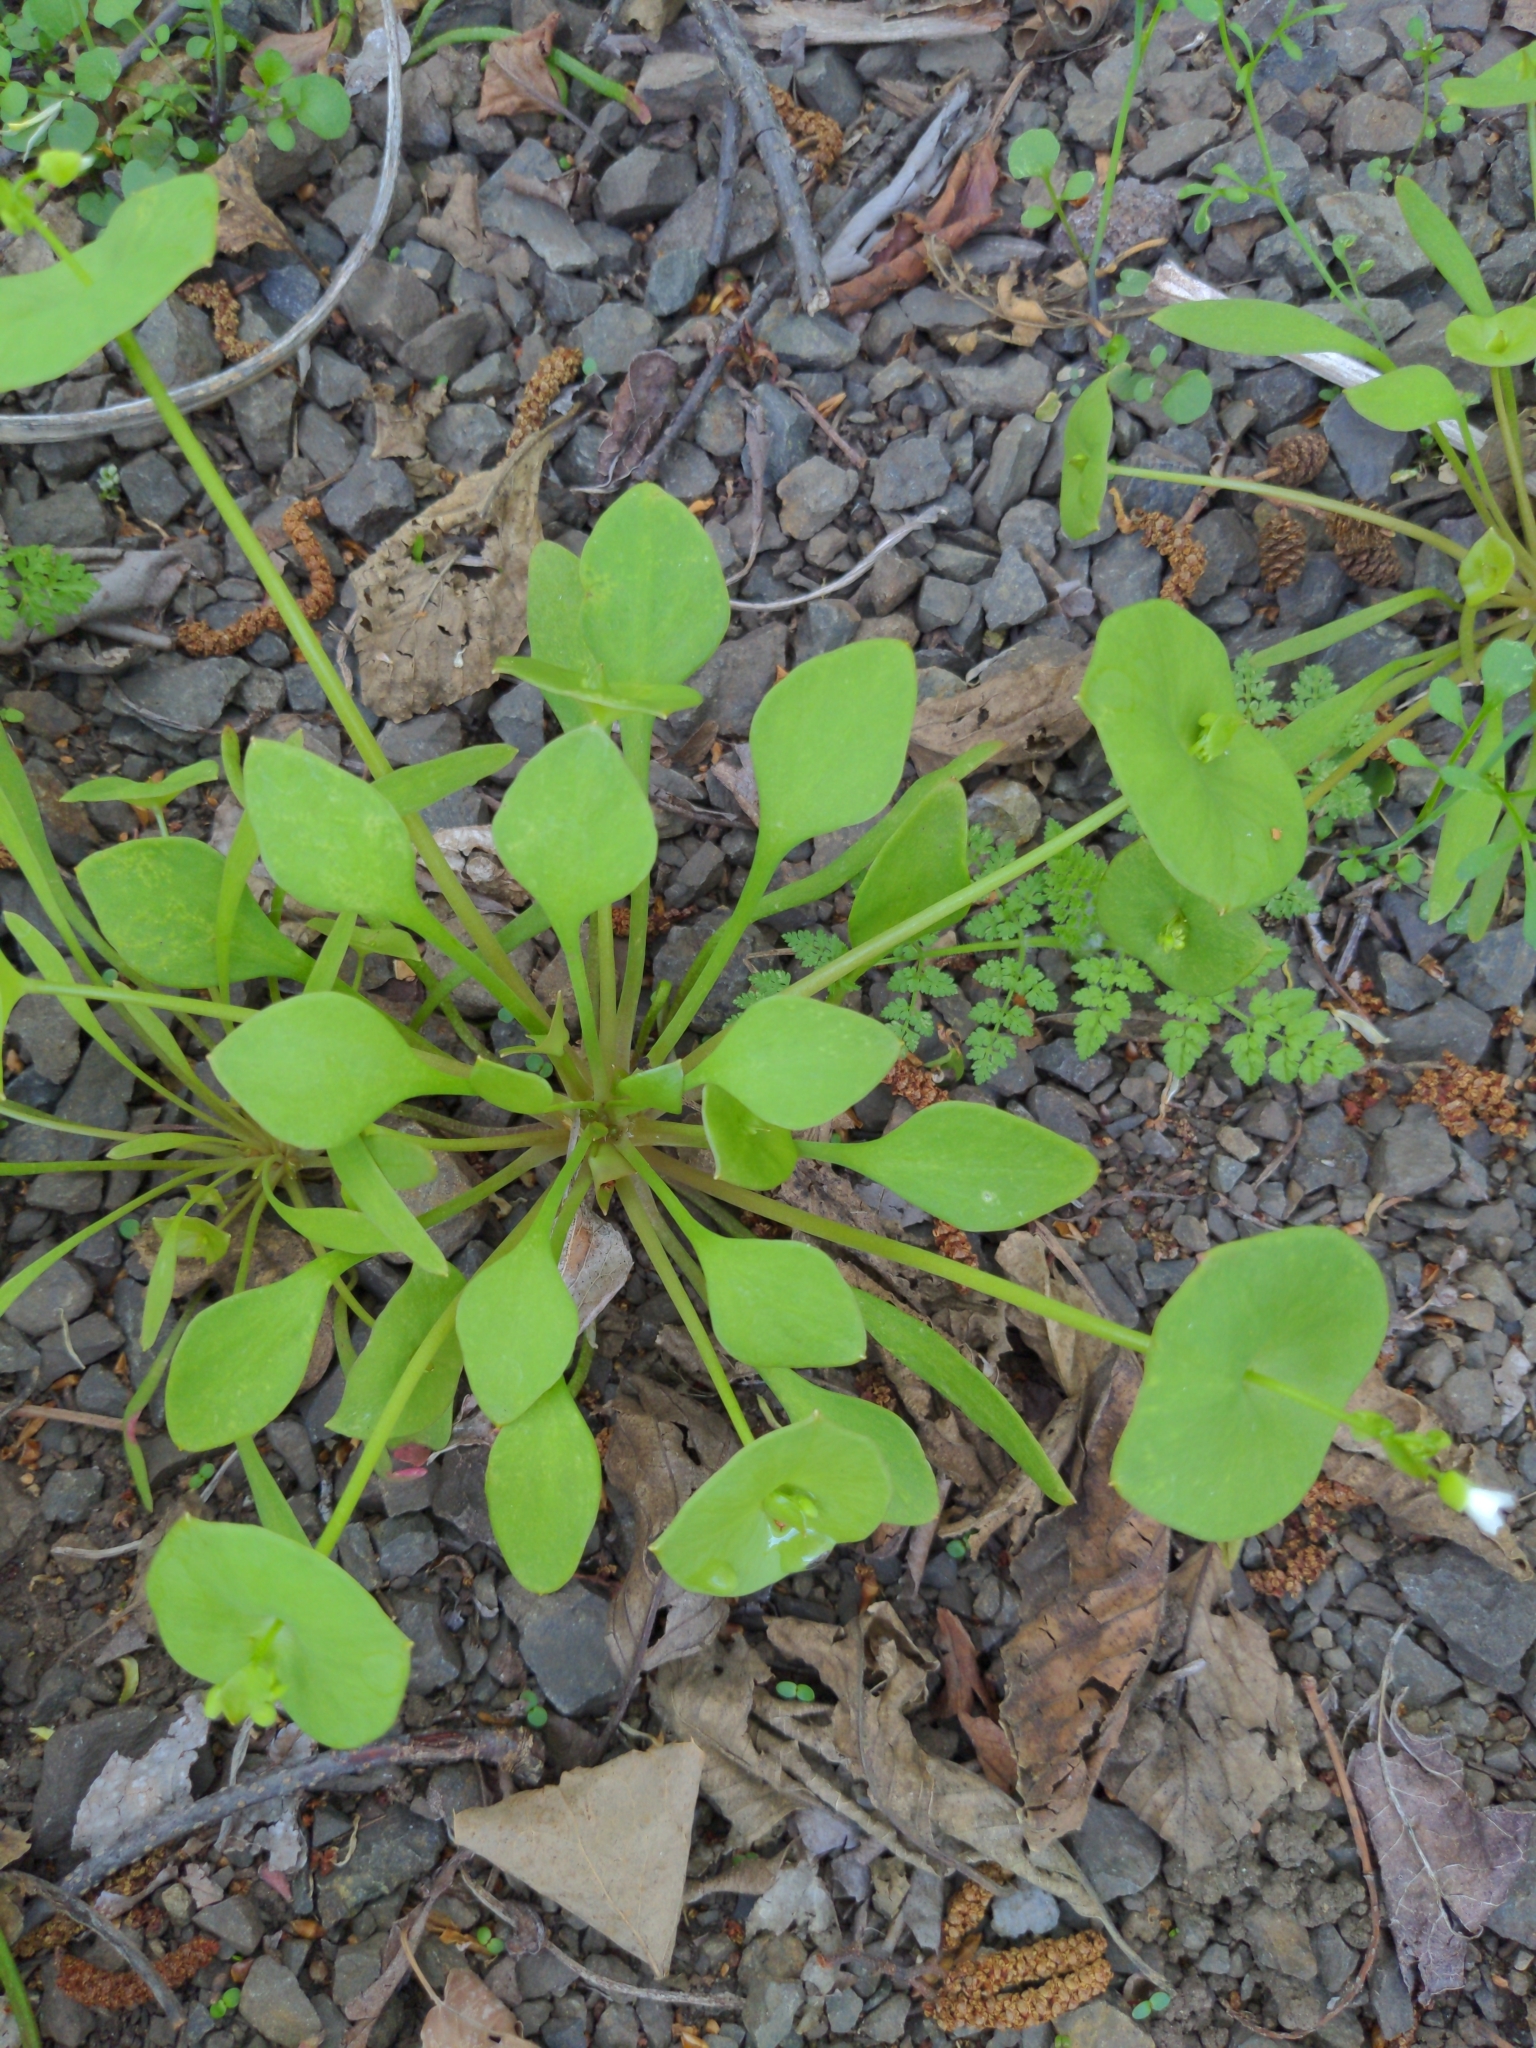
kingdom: Plantae
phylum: Tracheophyta
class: Magnoliopsida
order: Caryophyllales
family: Montiaceae
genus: Claytonia
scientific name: Claytonia perfoliata
